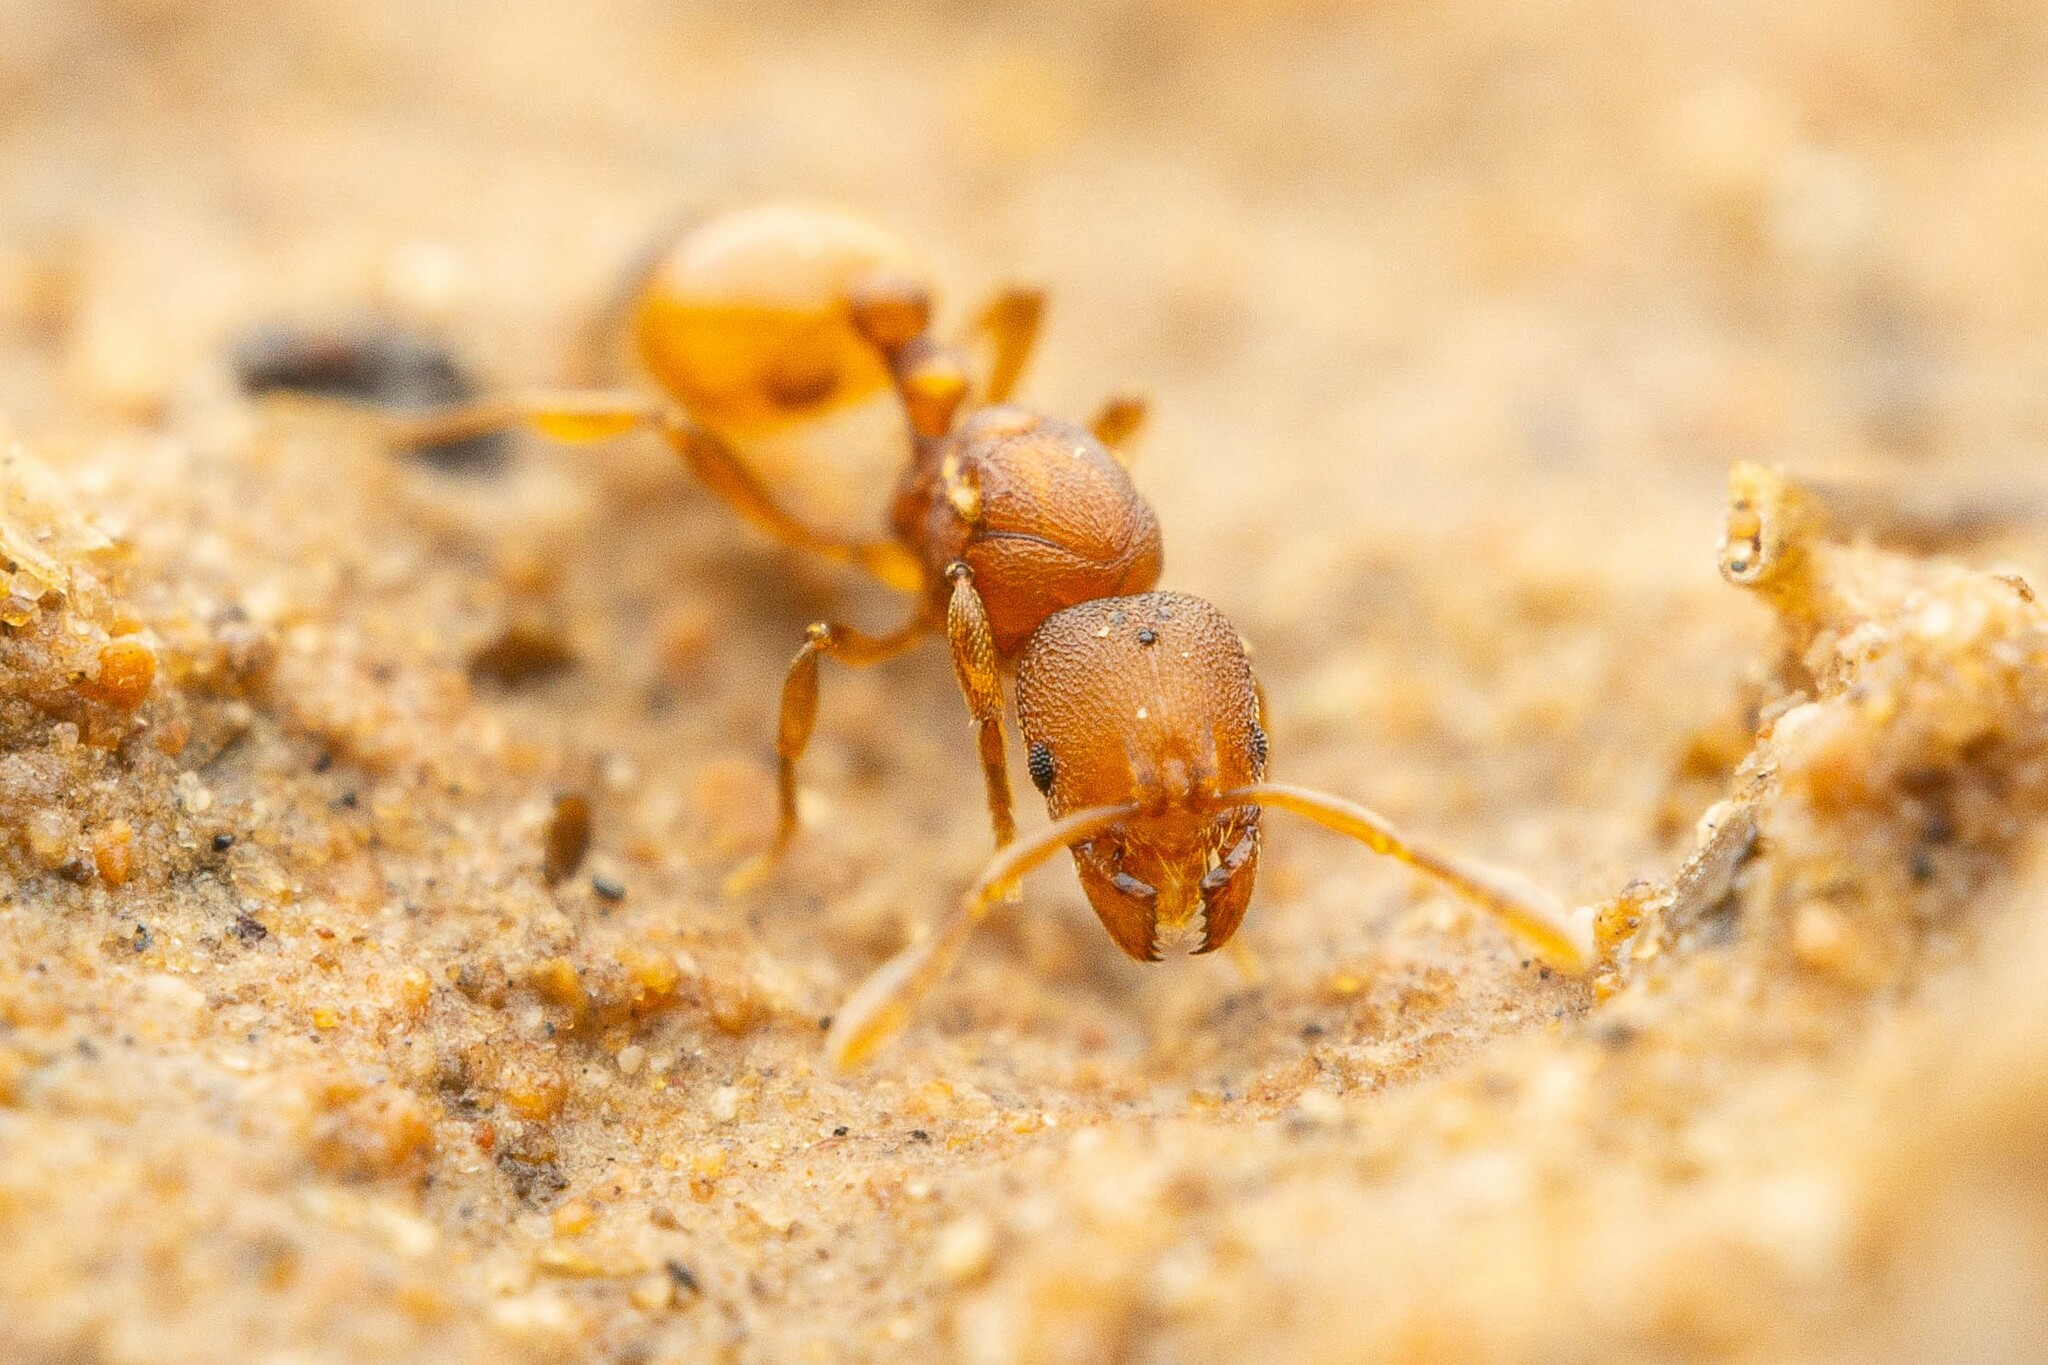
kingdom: Animalia
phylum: Arthropoda
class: Insecta
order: Hymenoptera
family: Formicidae
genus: Rogeria
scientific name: Rogeria foreli
